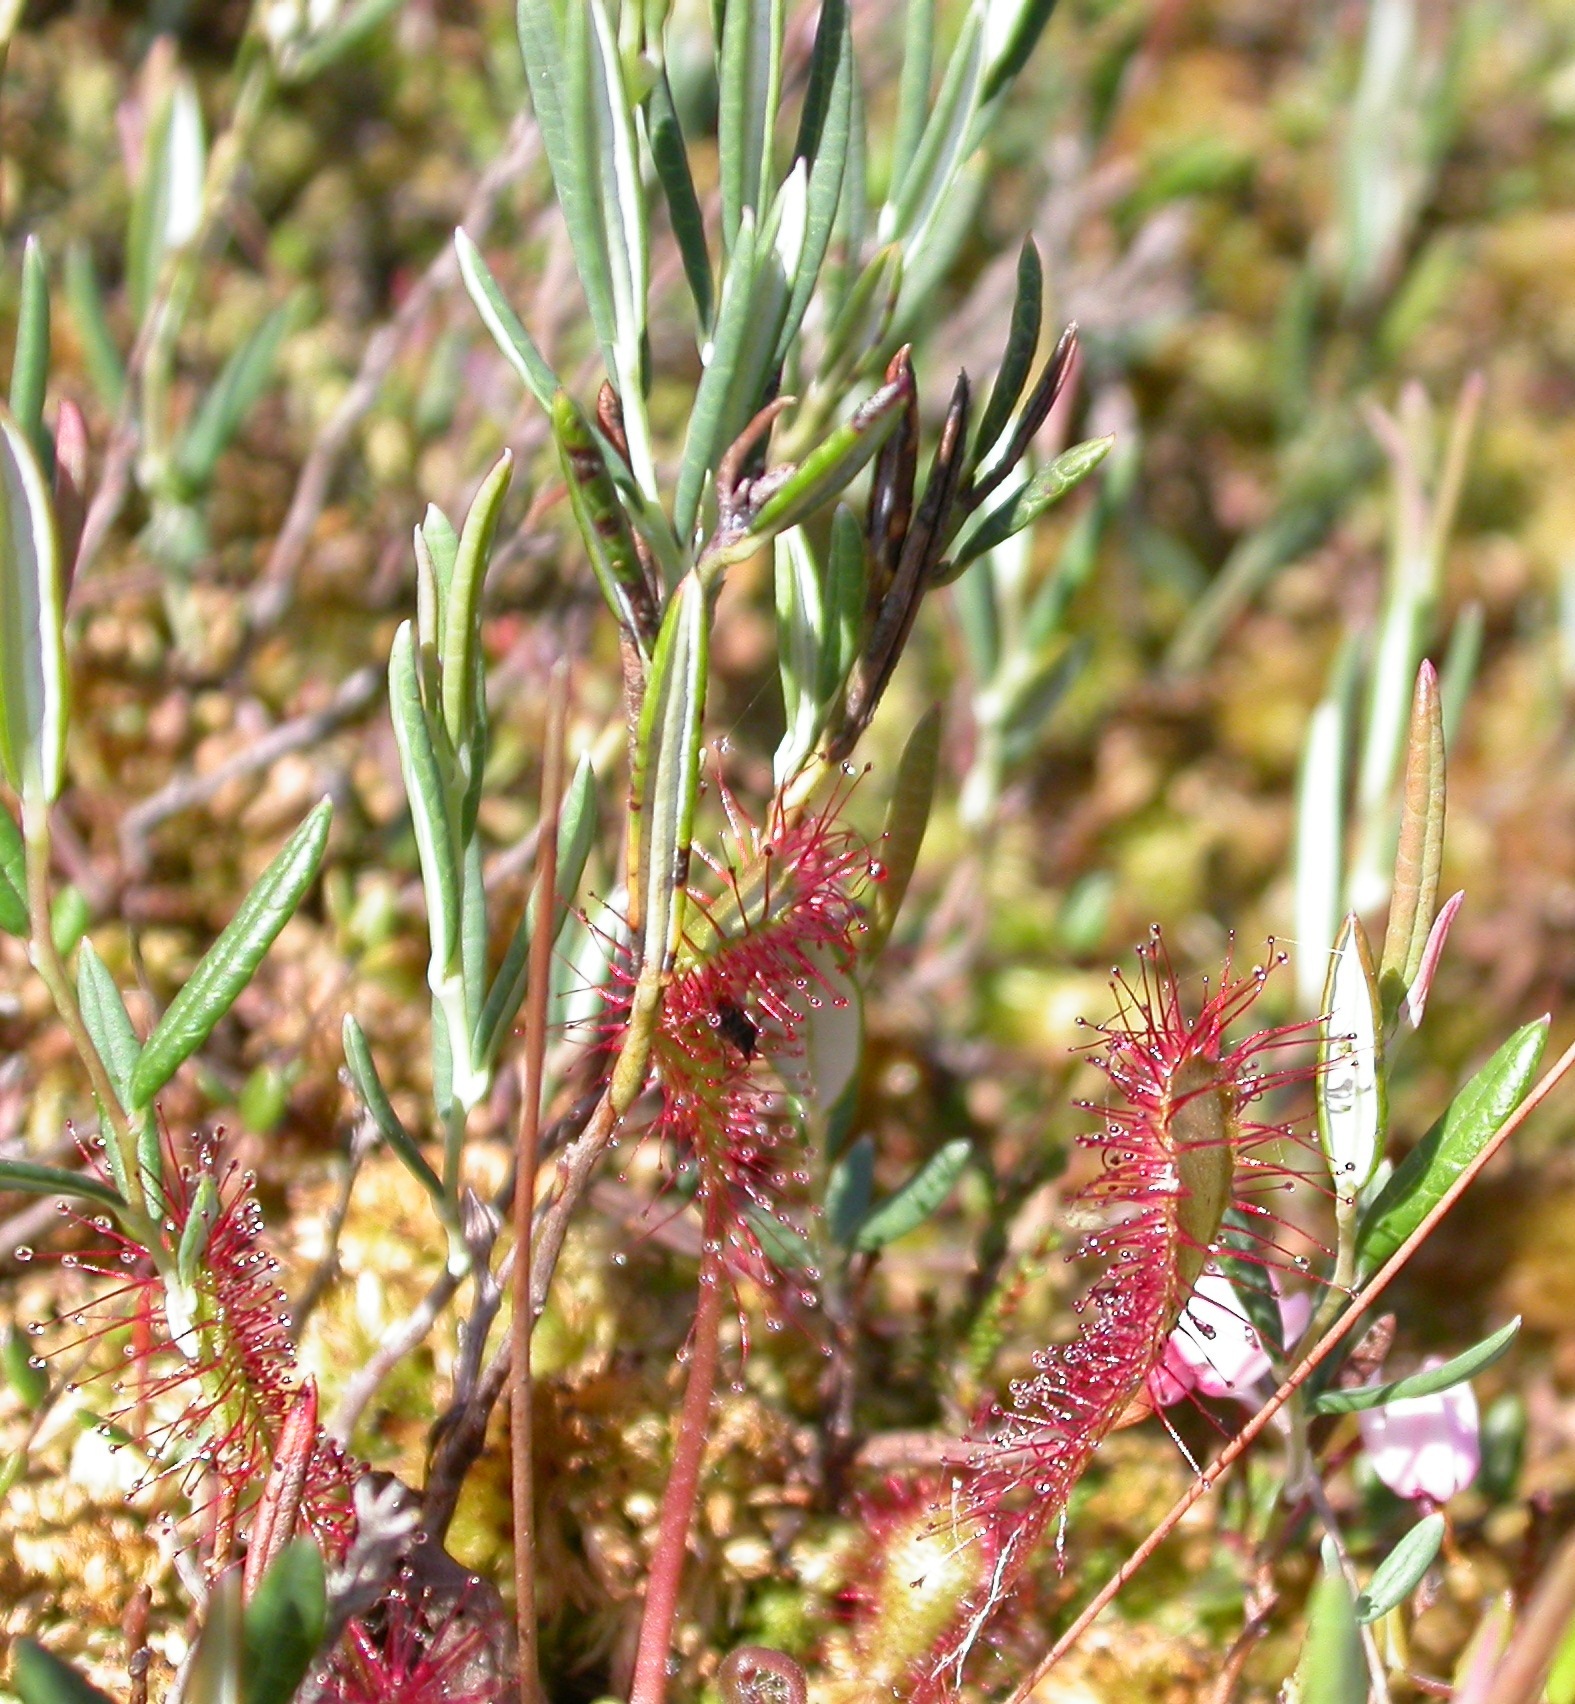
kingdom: Plantae
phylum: Tracheophyta
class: Magnoliopsida
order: Caryophyllales
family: Droseraceae
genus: Drosera
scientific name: Drosera anglica
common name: Great sundew
